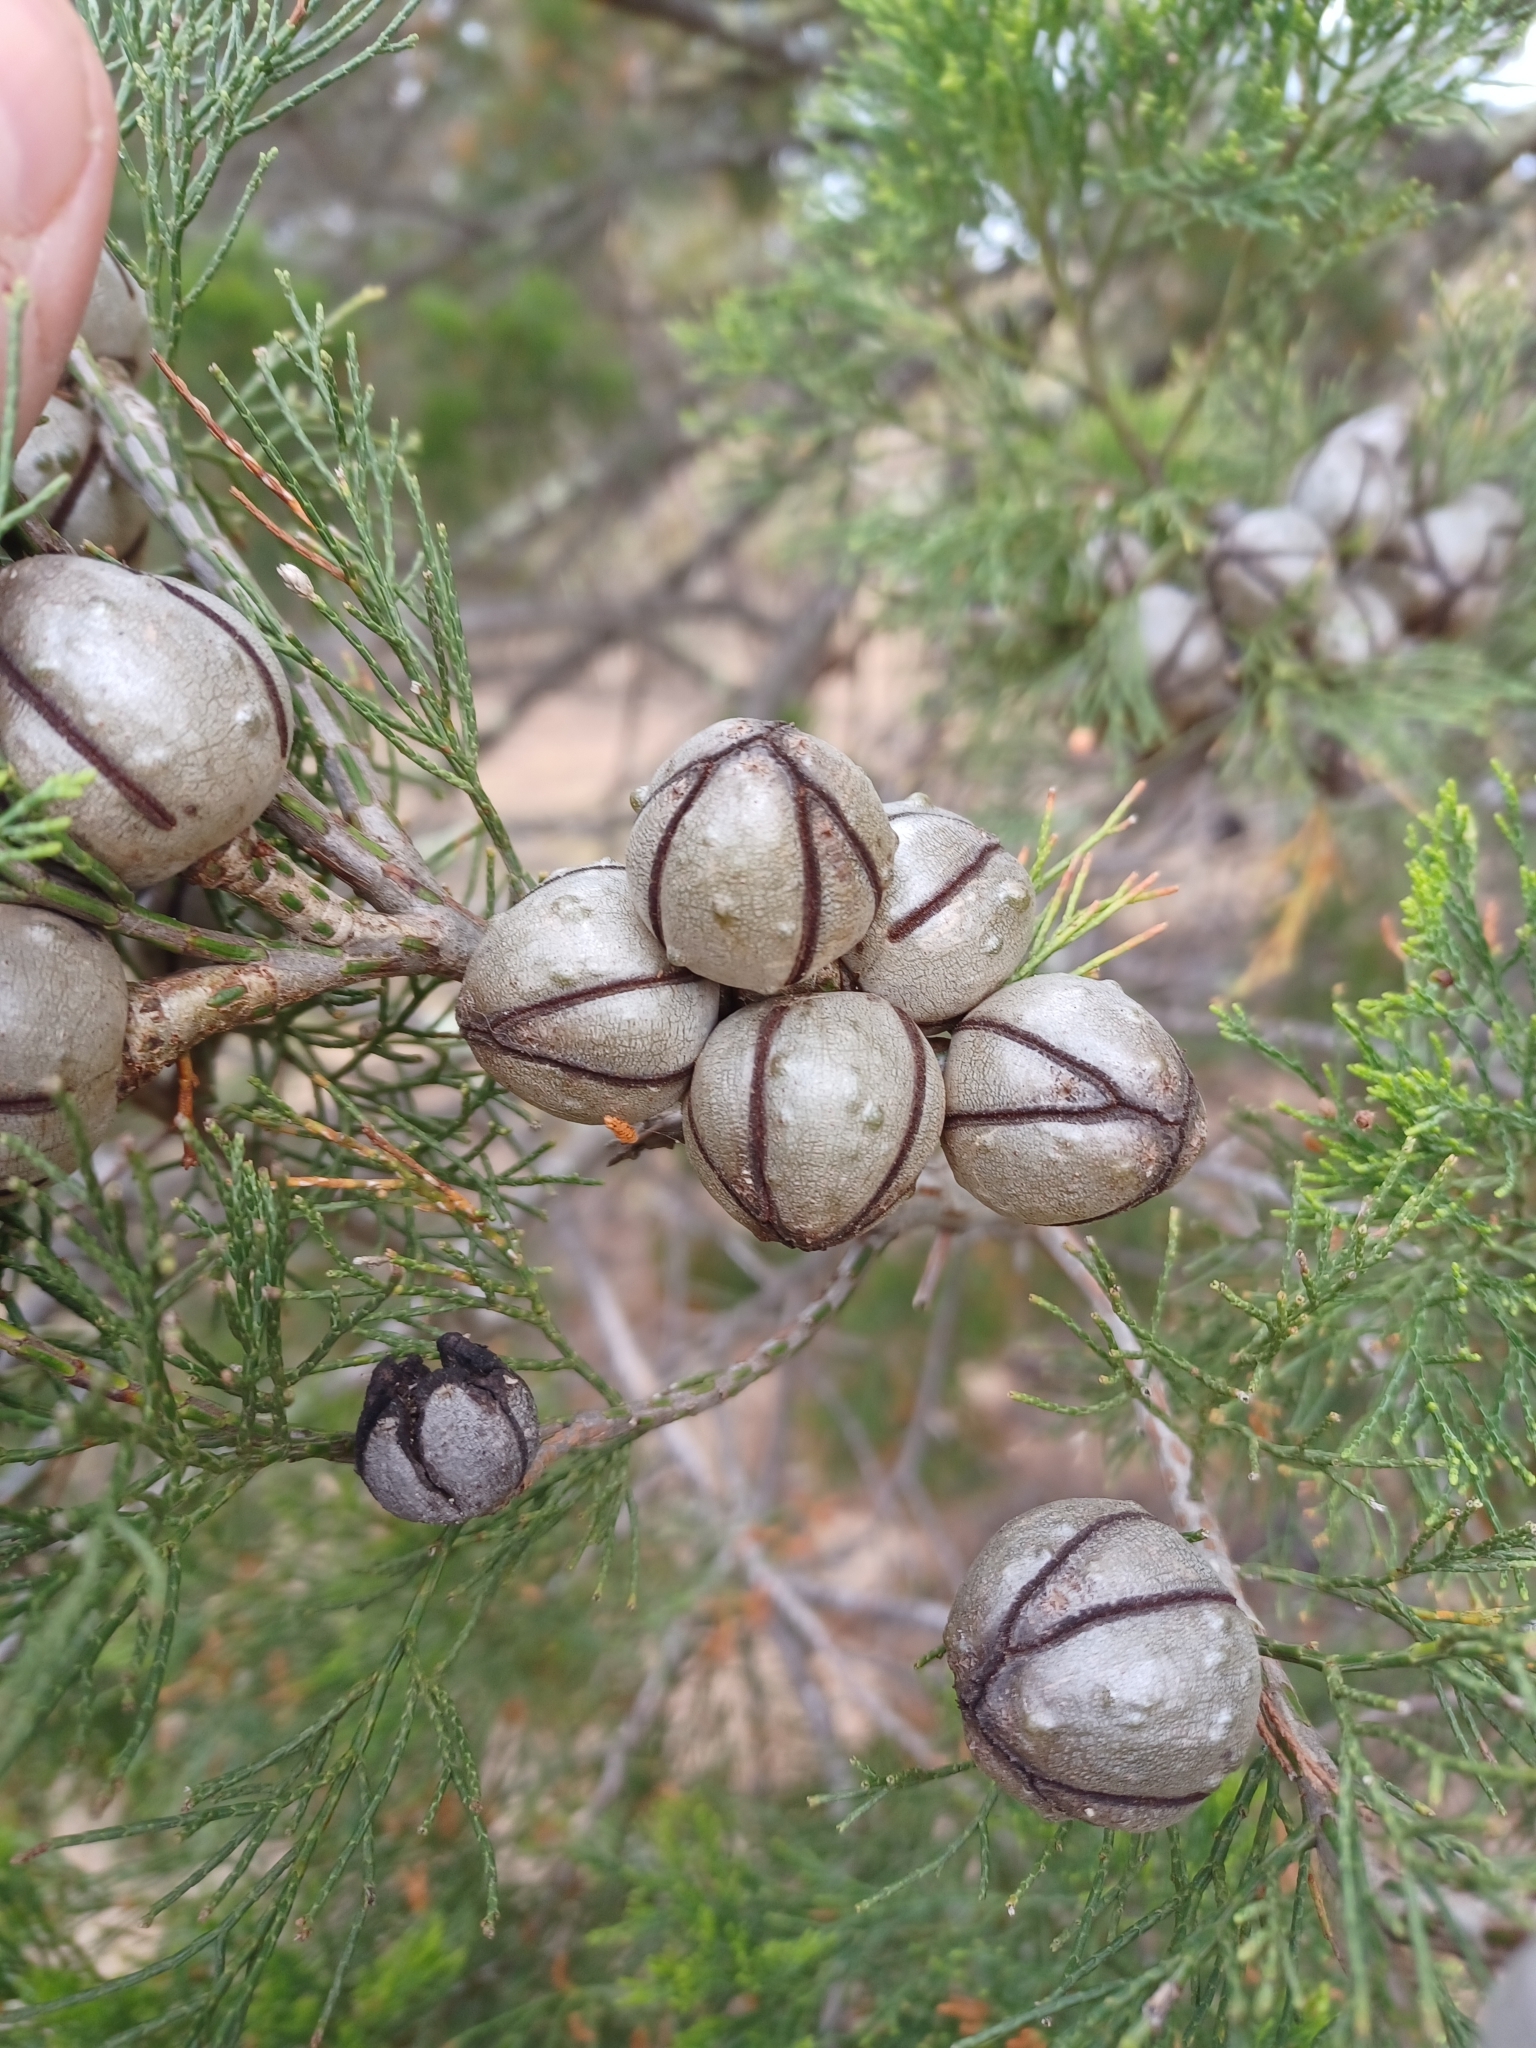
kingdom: Plantae
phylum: Tracheophyta
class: Pinopsida
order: Pinales
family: Cupressaceae
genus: Callitris
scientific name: Callitris preissii
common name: Mallee pine
